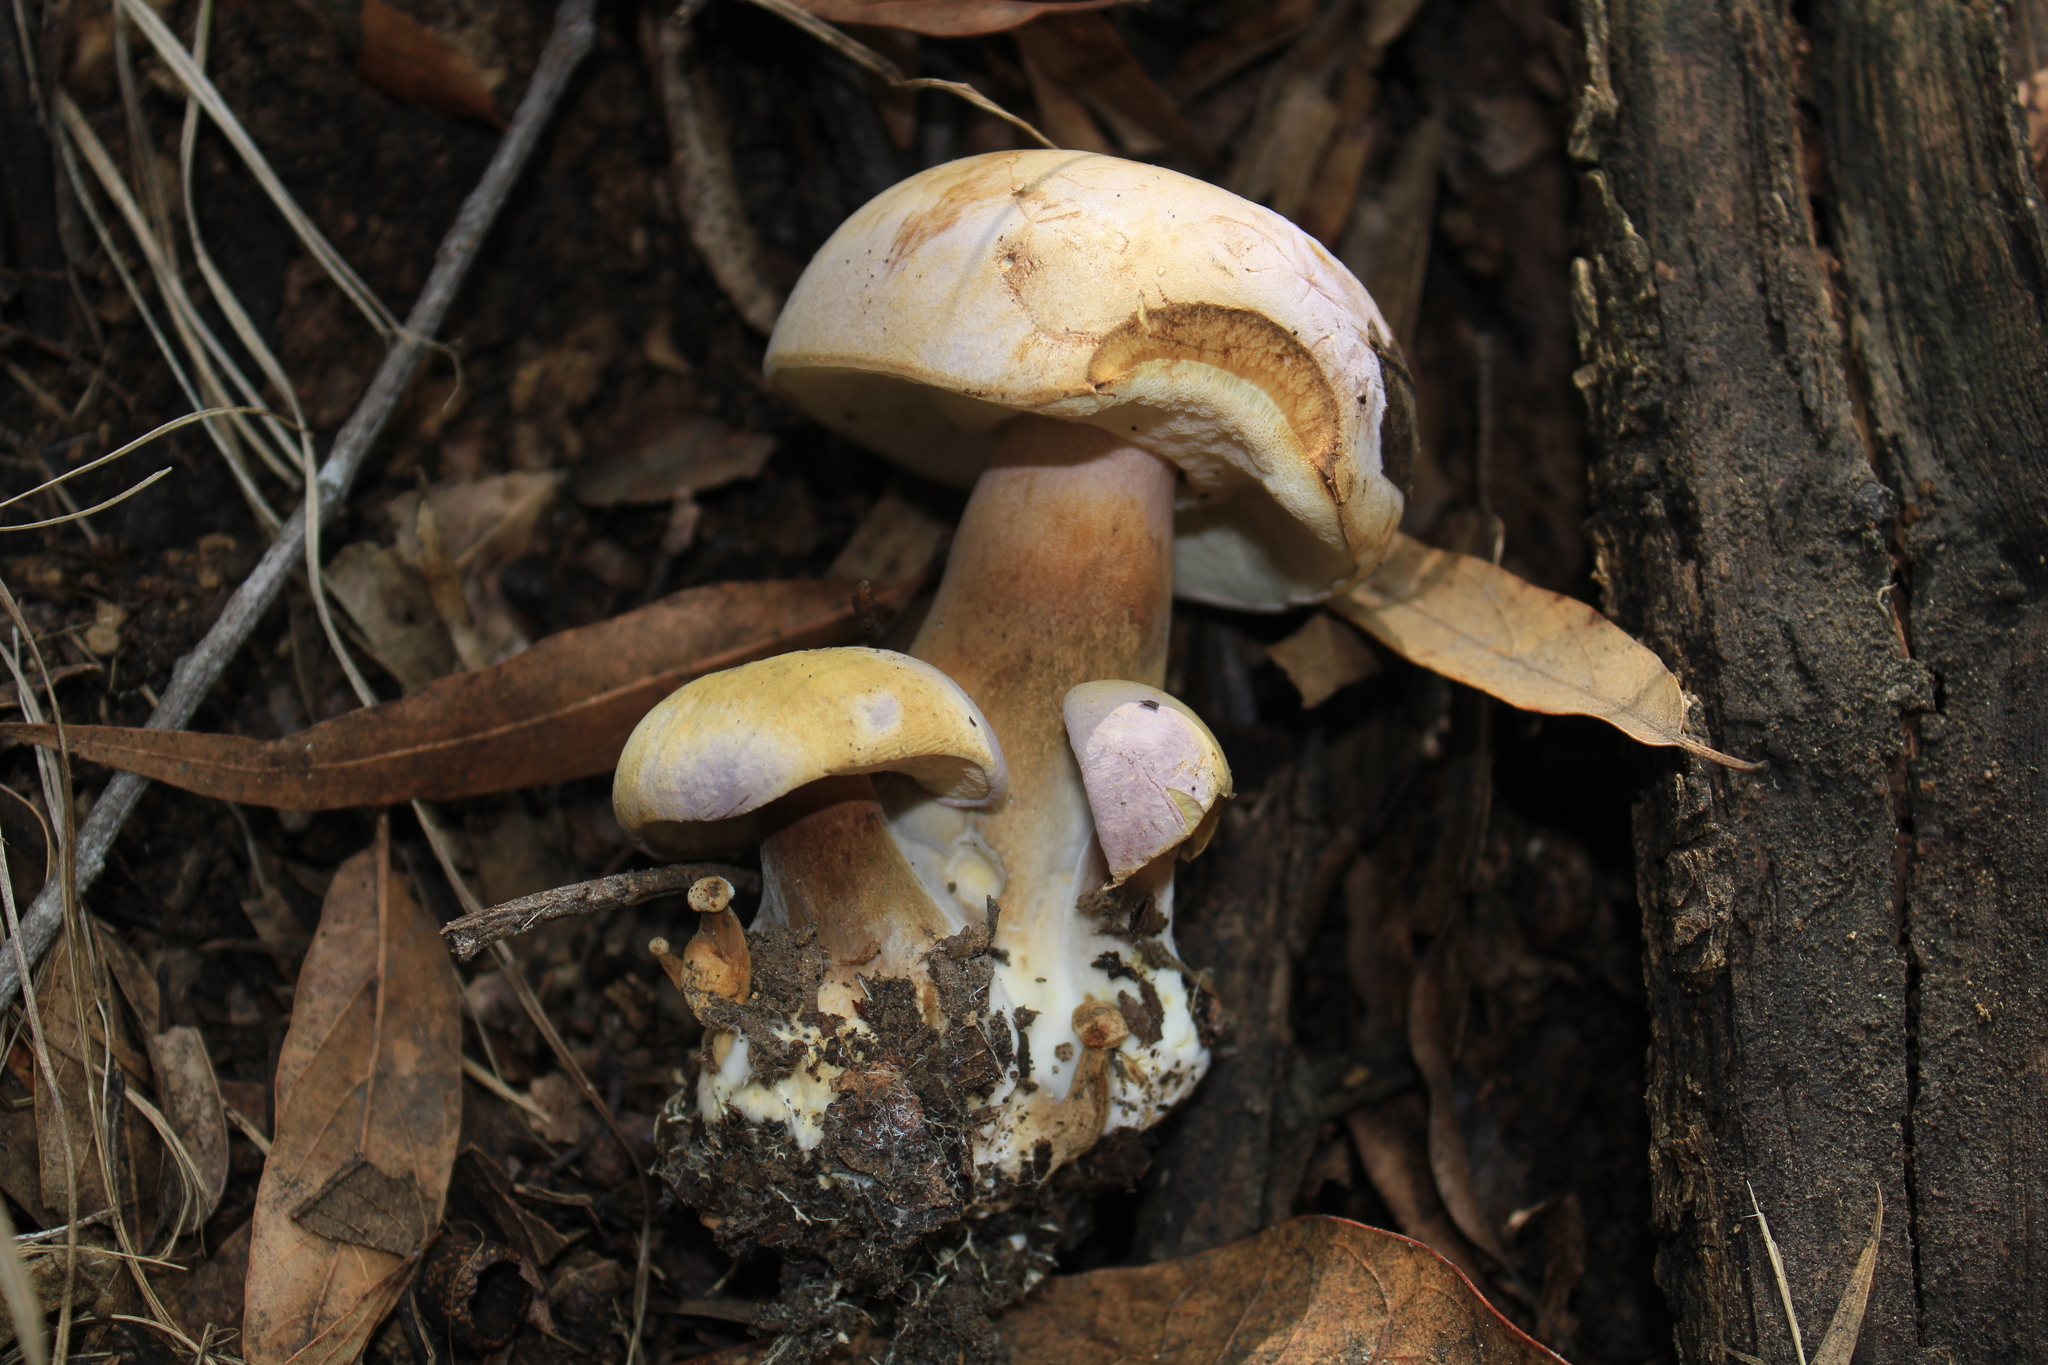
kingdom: Fungi
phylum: Basidiomycota
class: Agaricomycetes
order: Boletales
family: Boletaceae
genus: Tylopilus
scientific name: Tylopilus plumbeoviolaceus
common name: Violet gray bolete
